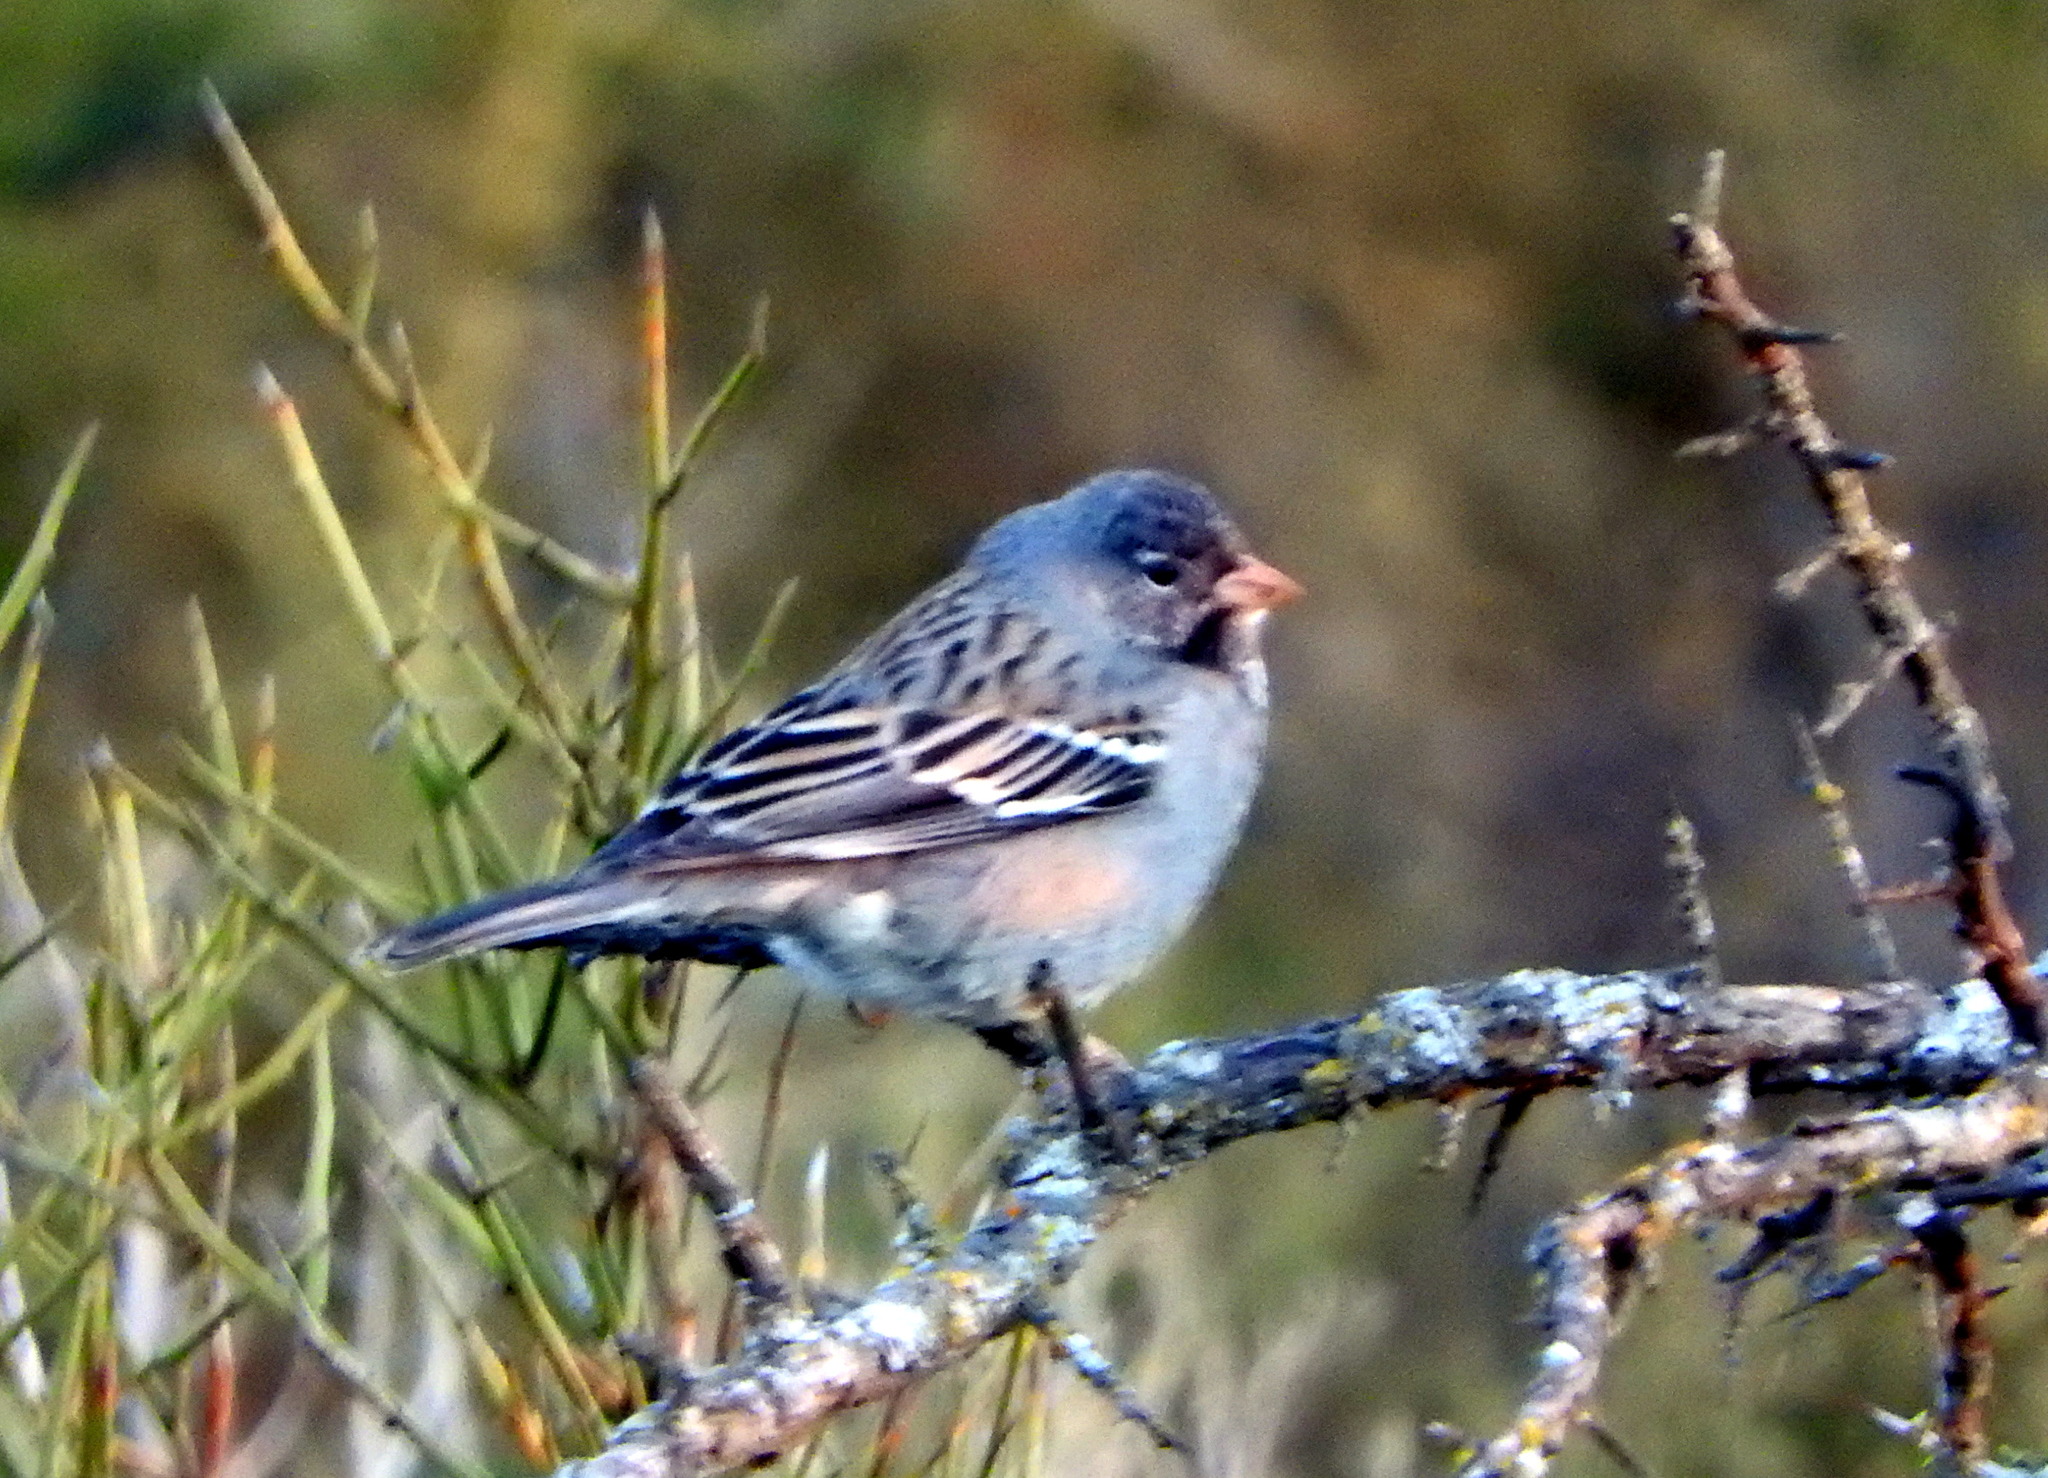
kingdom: Animalia
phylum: Chordata
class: Aves
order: Passeriformes
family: Thraupidae
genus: Rhopospina
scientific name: Rhopospina fruticeti
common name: Mourning sierra finch
